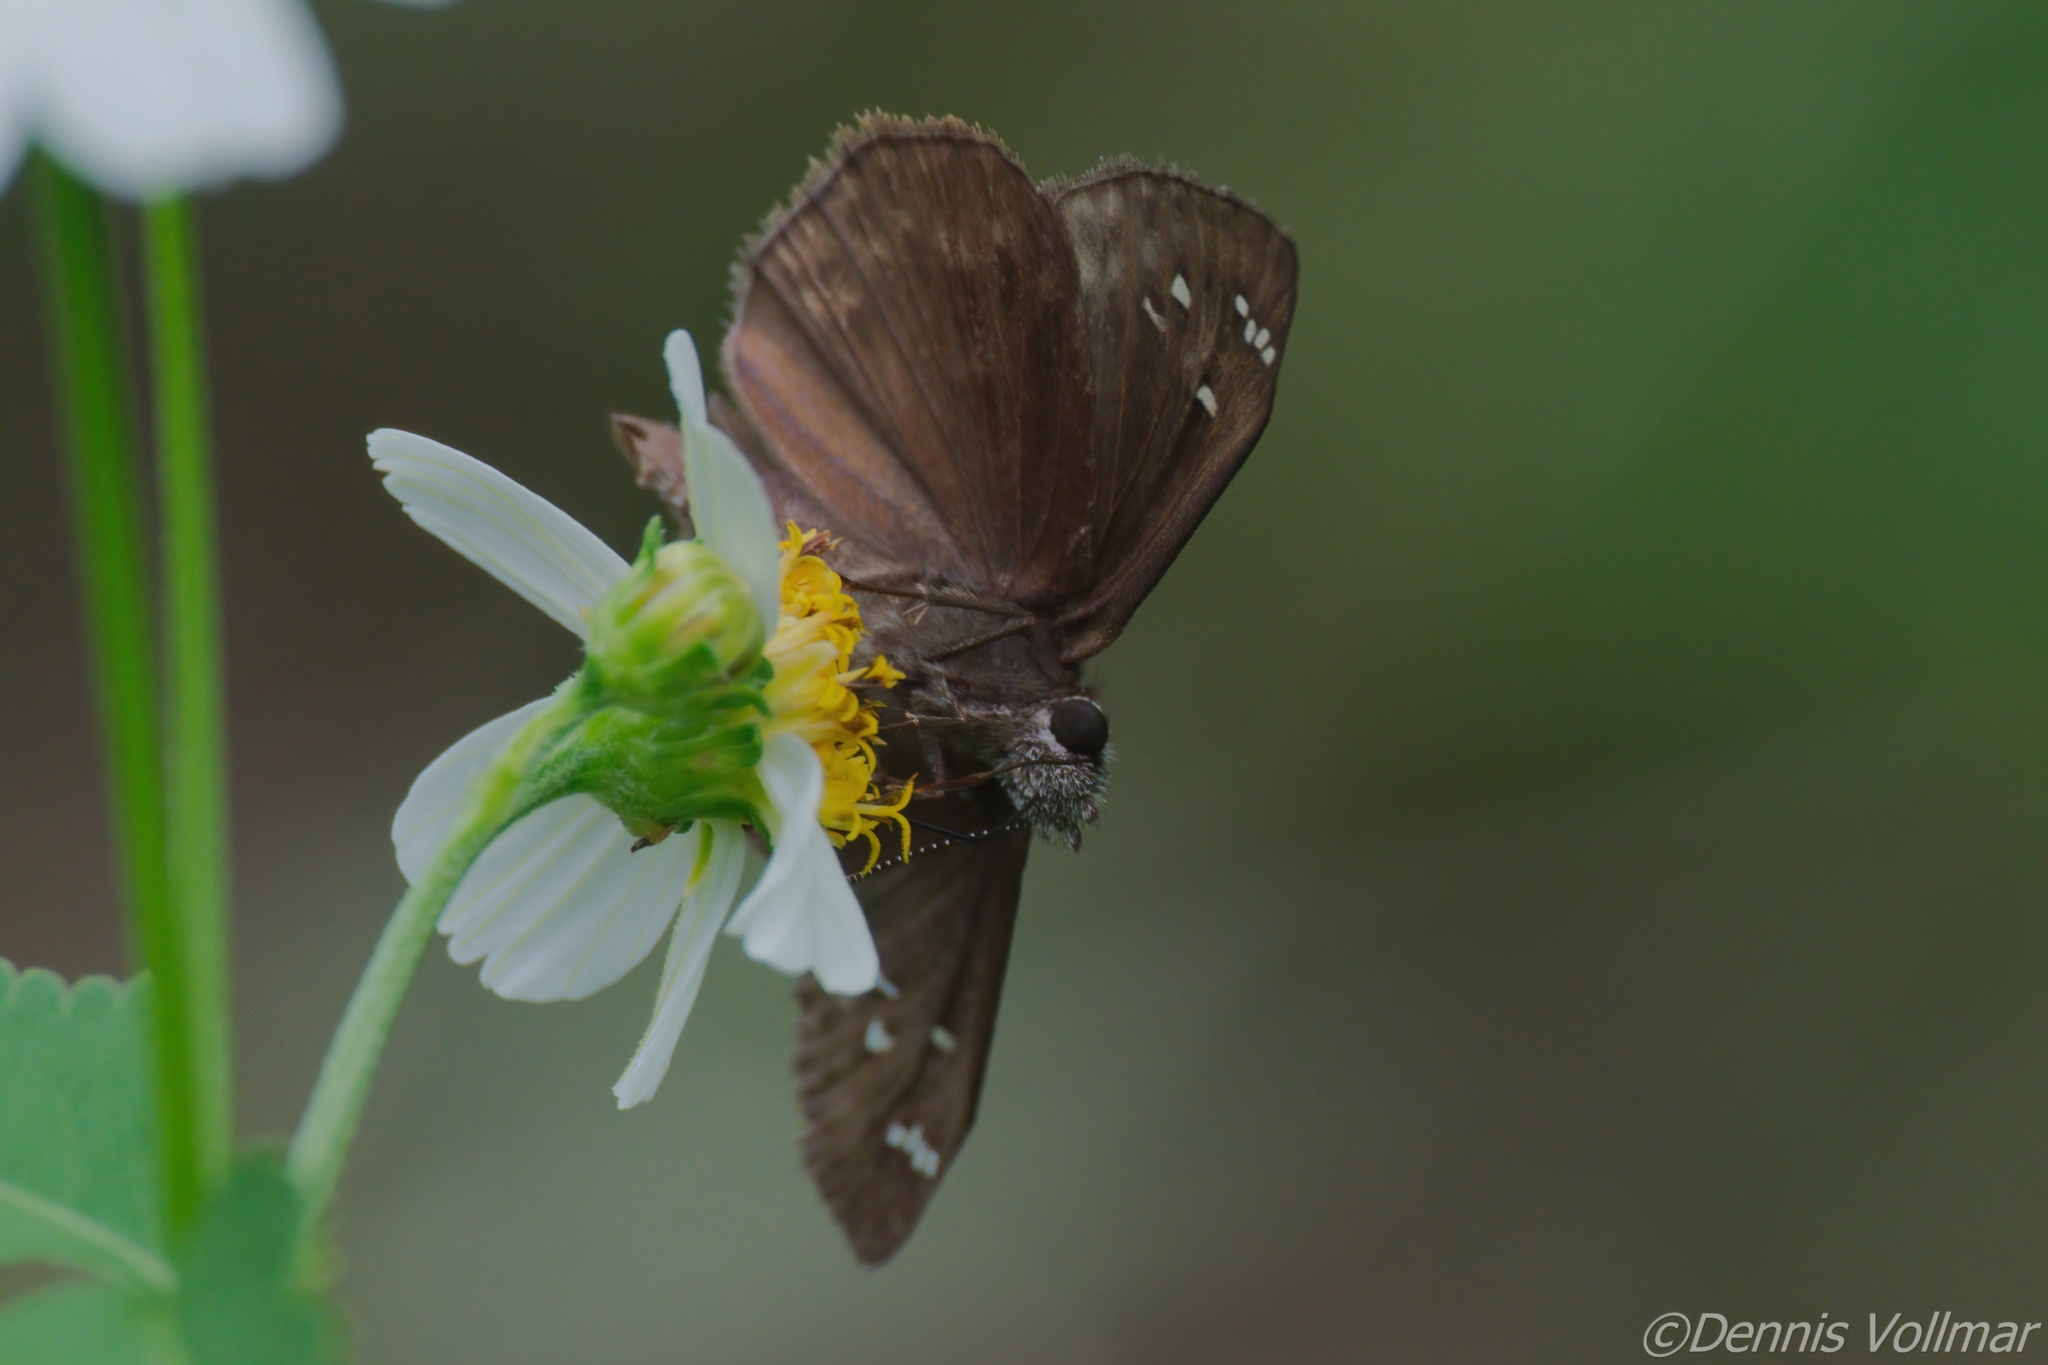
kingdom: Animalia
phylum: Arthropoda
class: Insecta
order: Lepidoptera
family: Hesperiidae
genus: Erynnis
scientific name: Erynnis horatius
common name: Horace's duskywing
